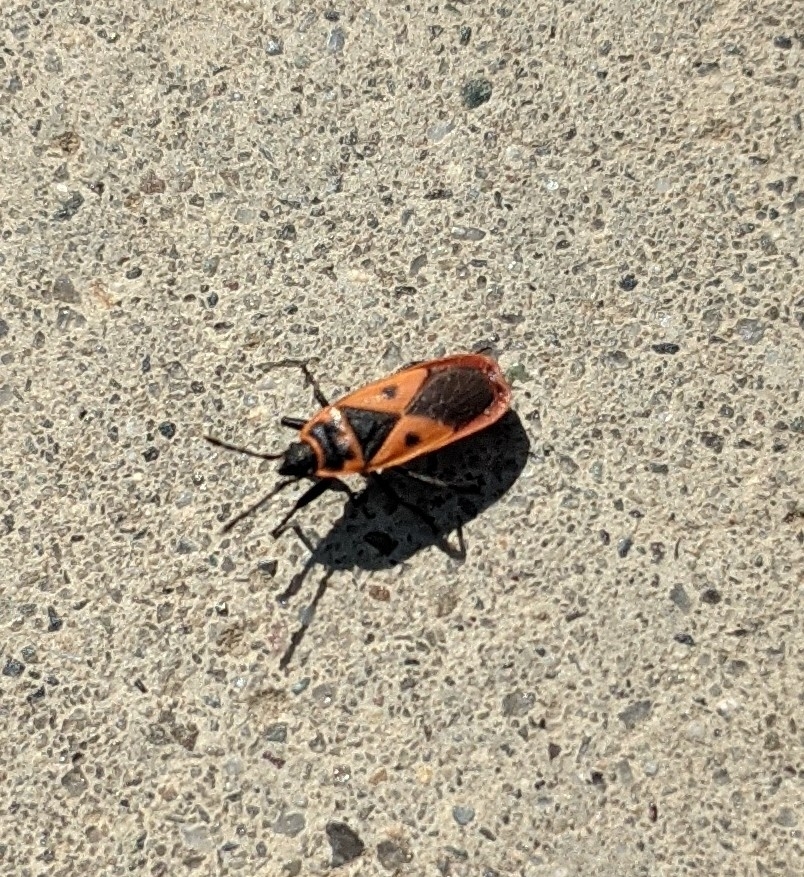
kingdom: Animalia
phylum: Arthropoda
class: Insecta
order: Hemiptera
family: Pyrrhocoridae
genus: Scantius
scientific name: Scantius aegyptius
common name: Red bug
